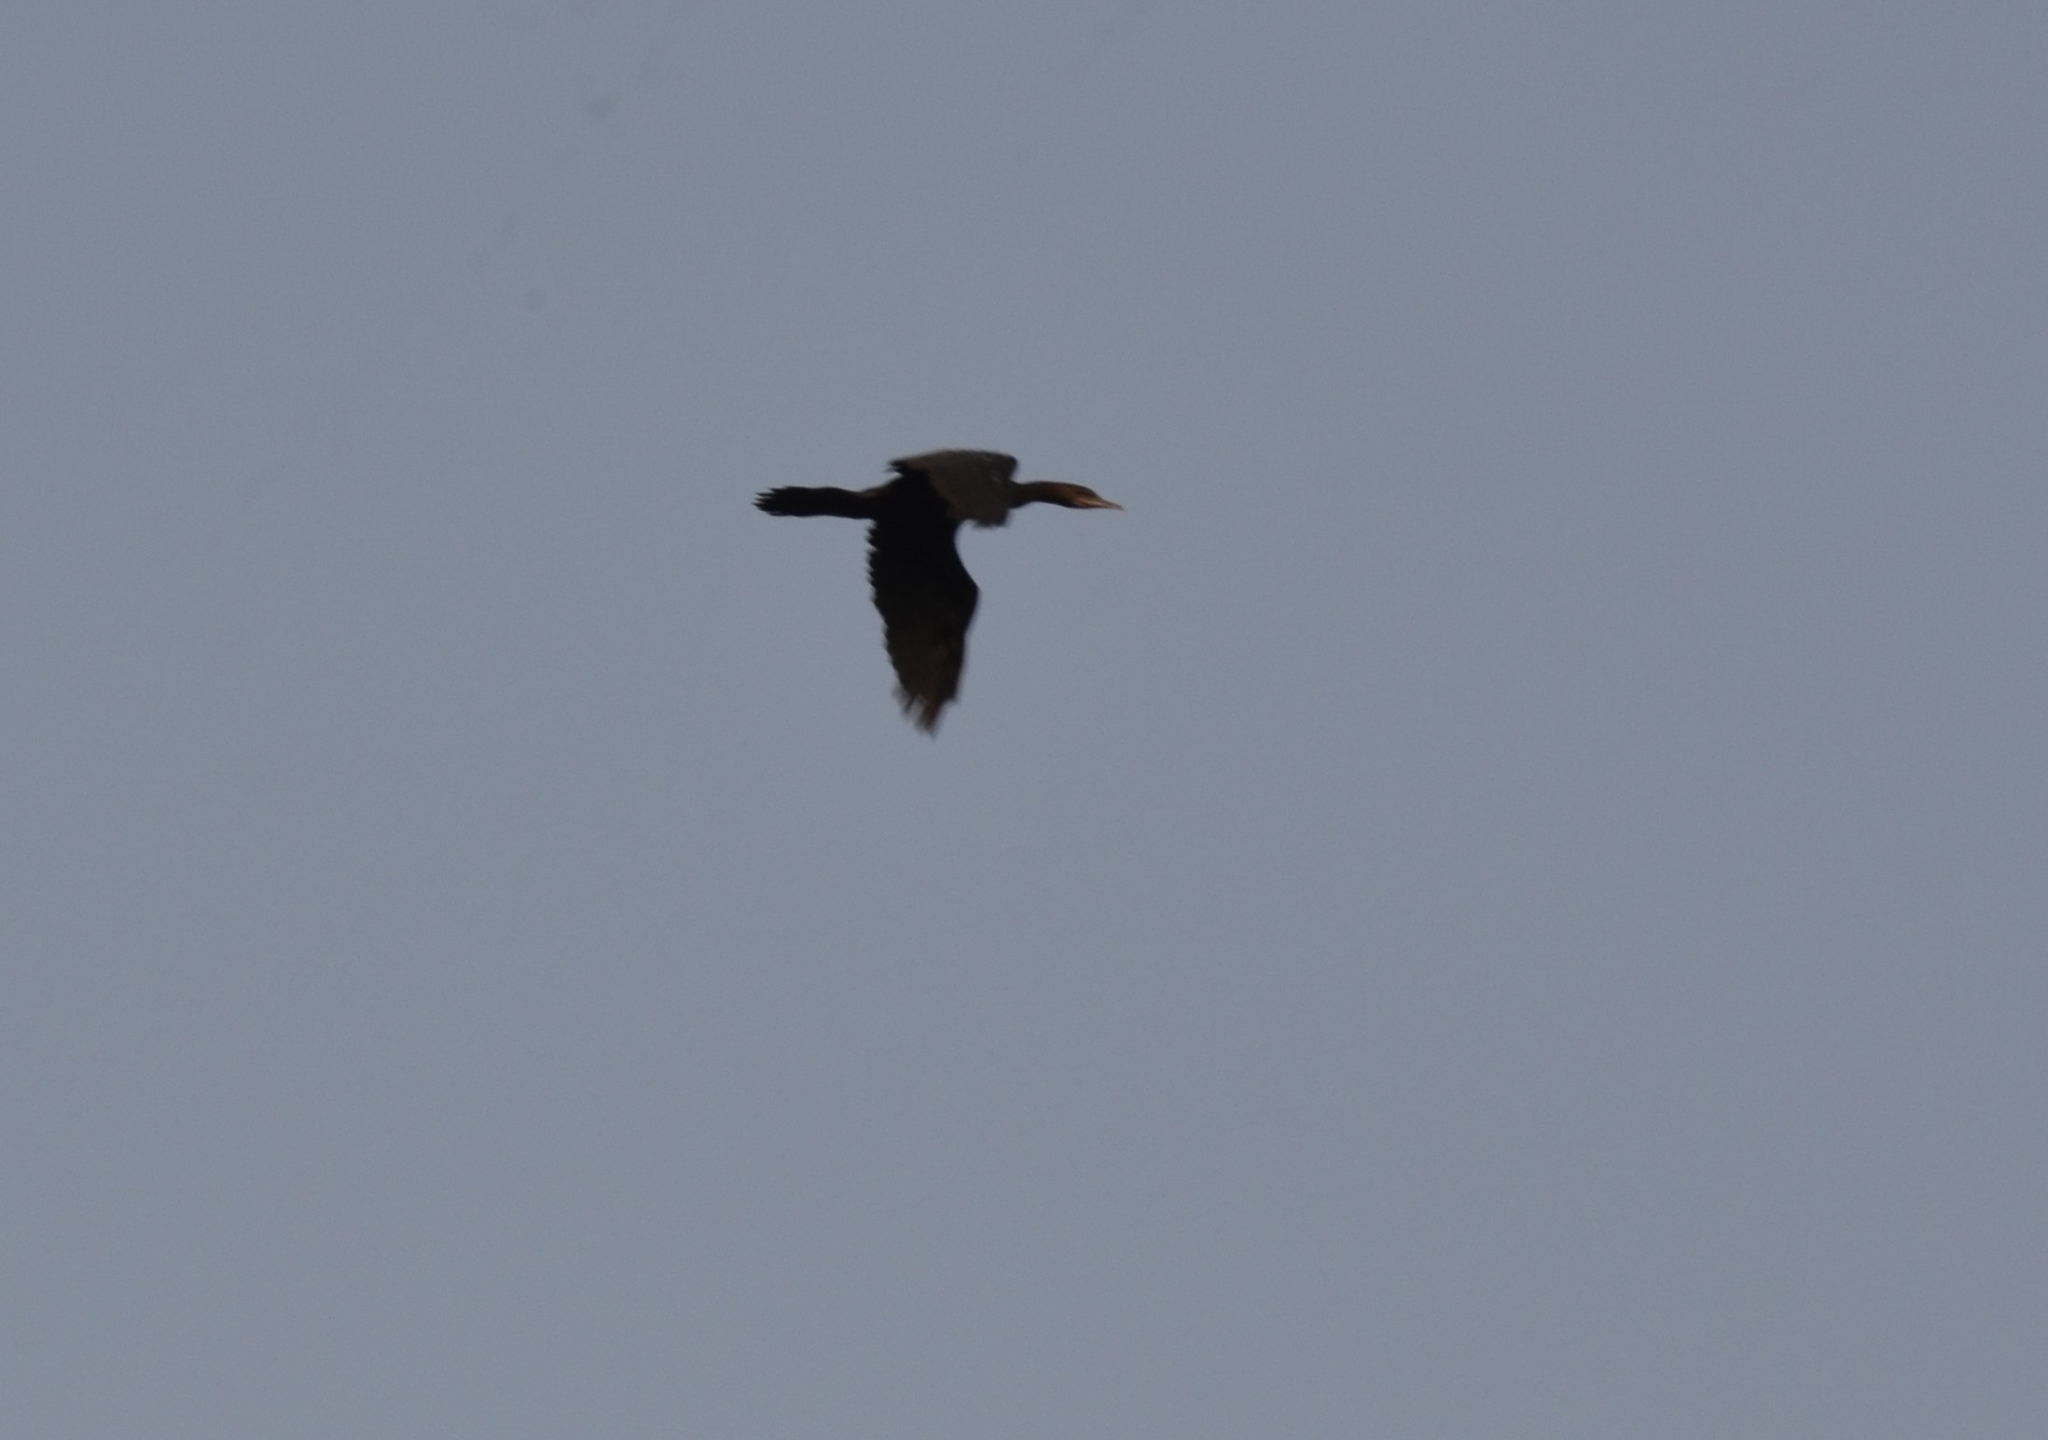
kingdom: Animalia
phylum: Chordata
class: Aves
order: Suliformes
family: Phalacrocoracidae
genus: Microcarbo
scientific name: Microcarbo niger
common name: Little cormorant
